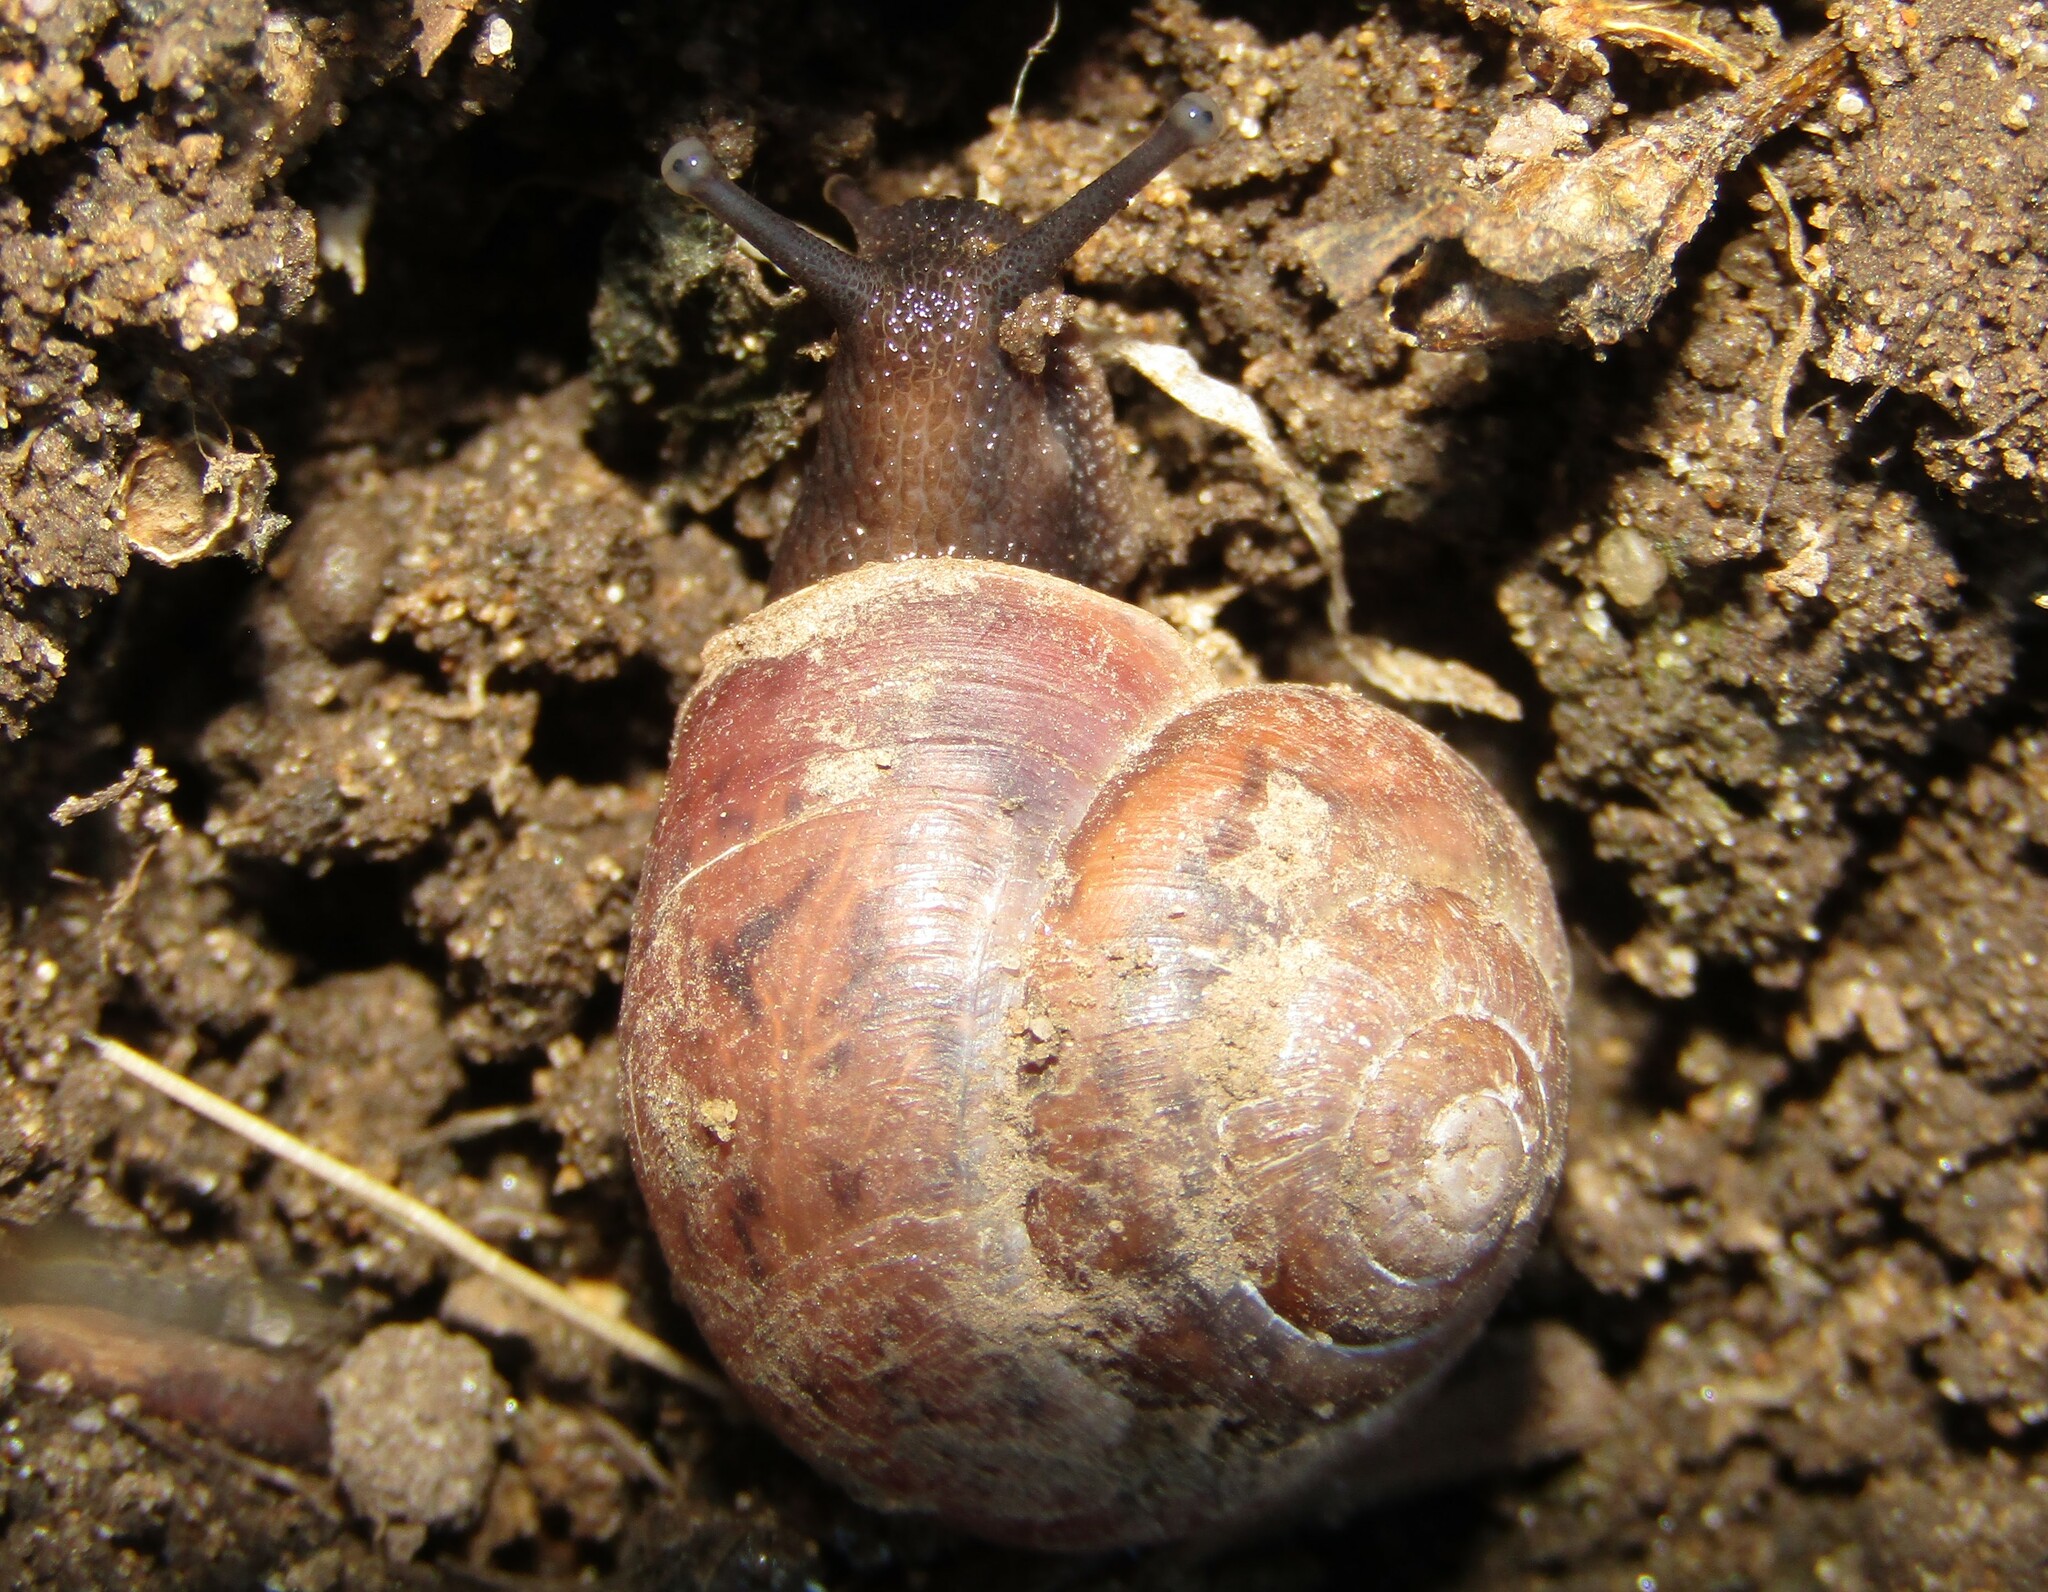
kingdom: Animalia
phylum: Mollusca
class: Gastropoda
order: Stylommatophora
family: Camaenidae
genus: Fruticicola
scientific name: Fruticicola fruticum
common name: Bush snail
